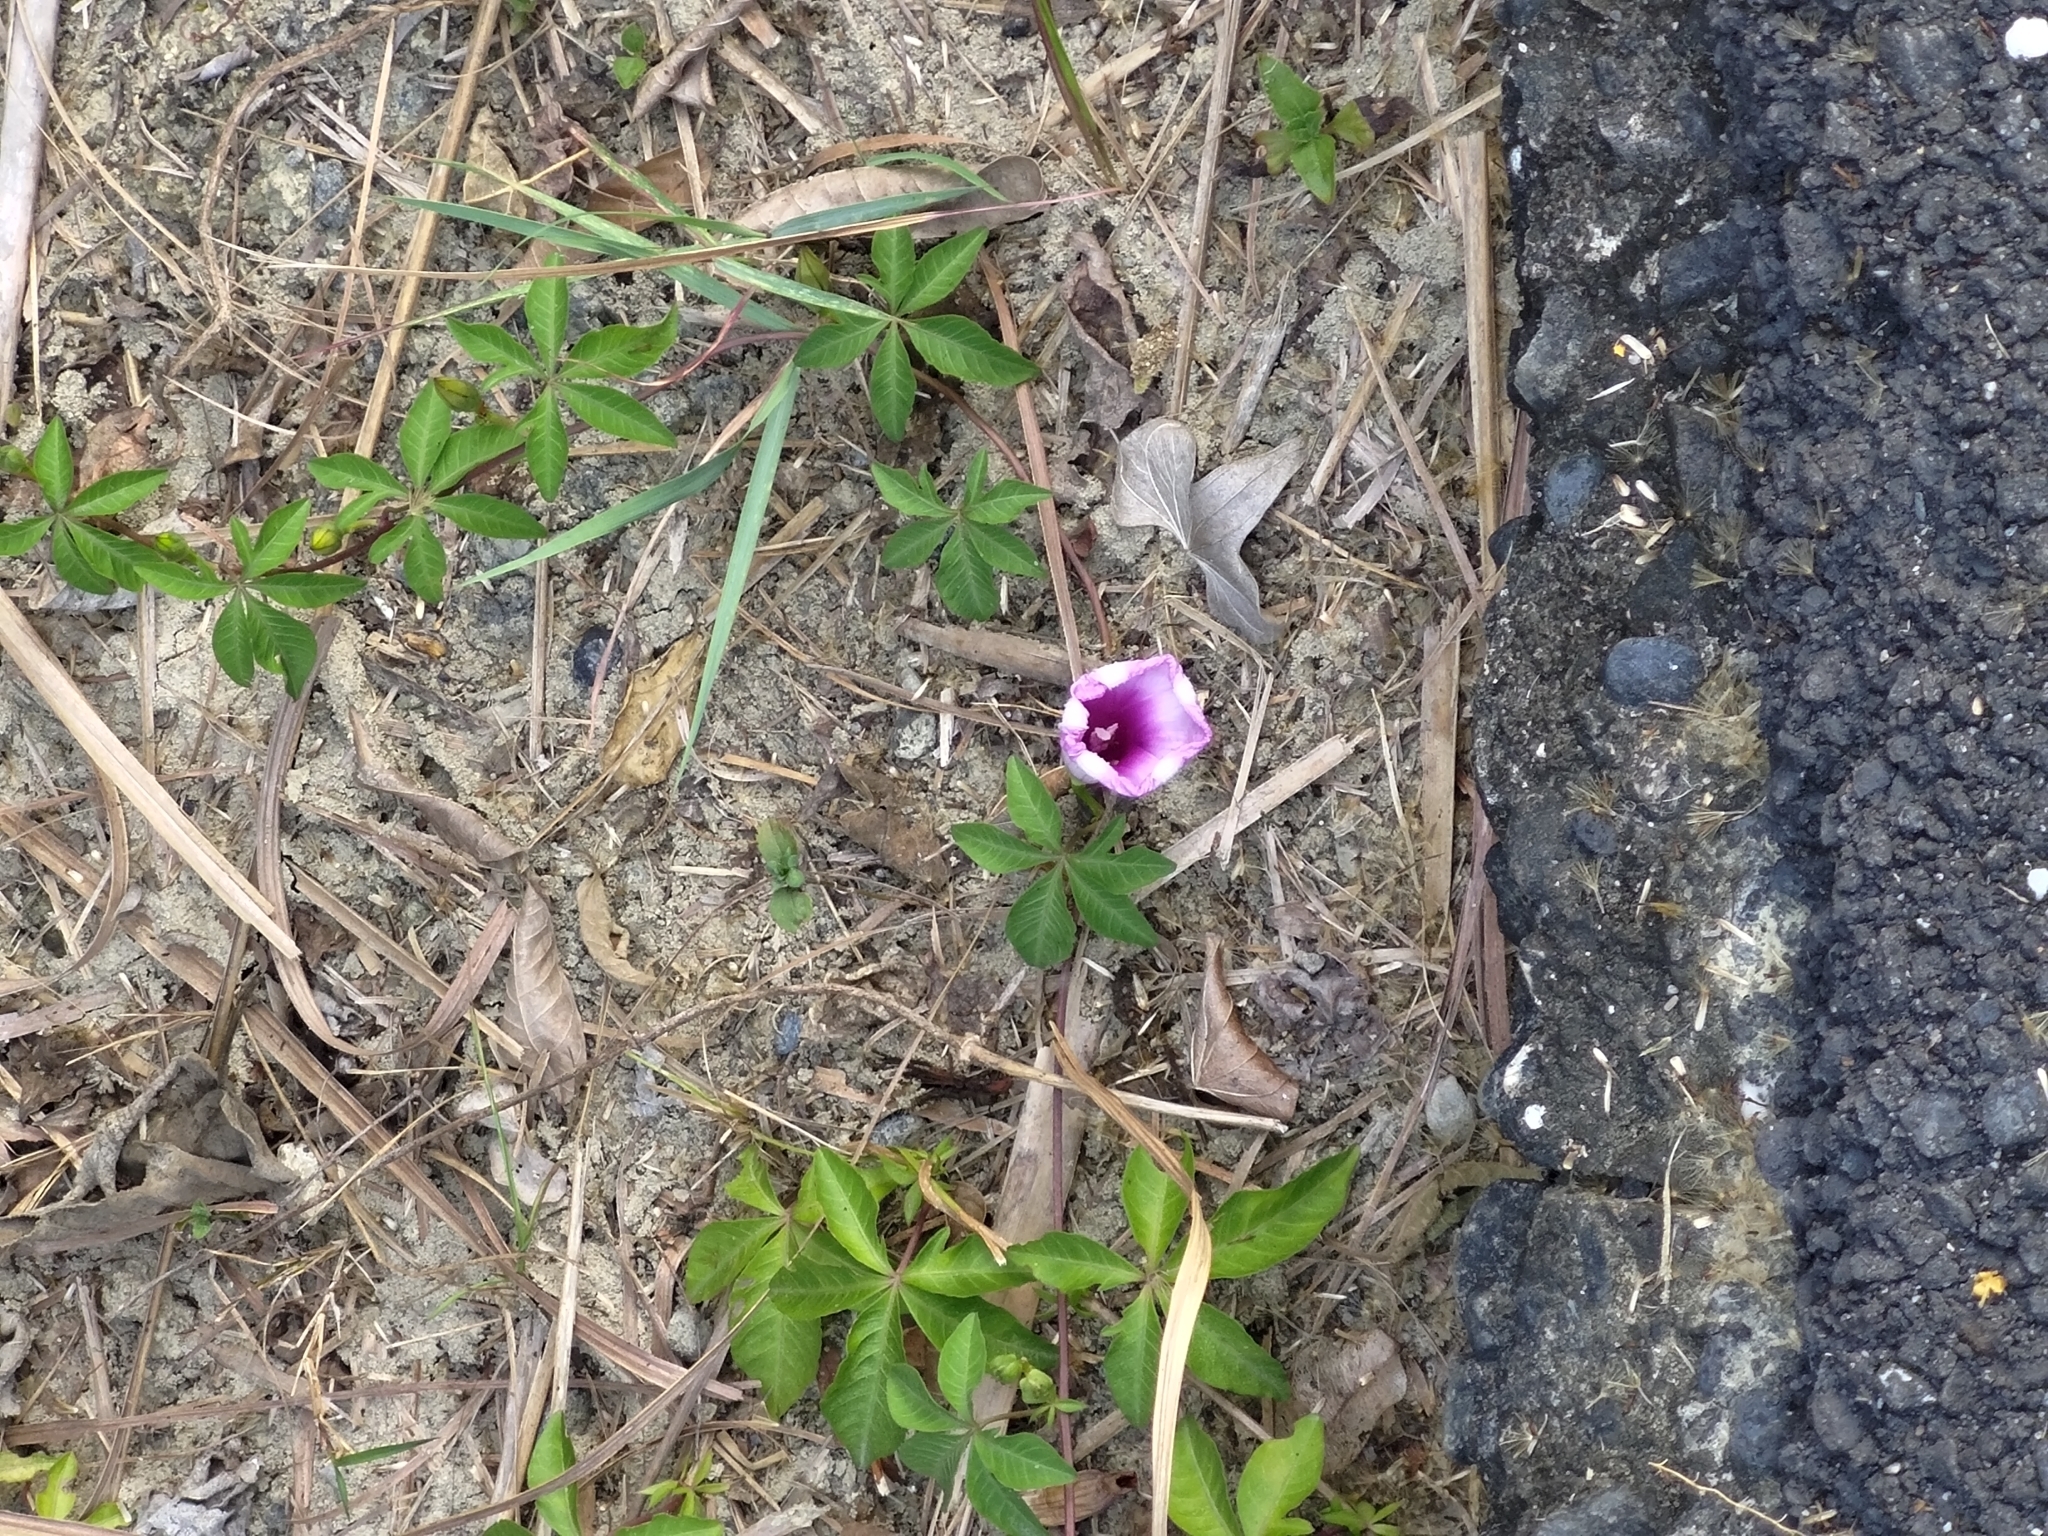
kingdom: Plantae
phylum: Tracheophyta
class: Magnoliopsida
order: Solanales
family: Convolvulaceae
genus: Ipomoea
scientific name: Ipomoea cairica
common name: Mile a minute vine
